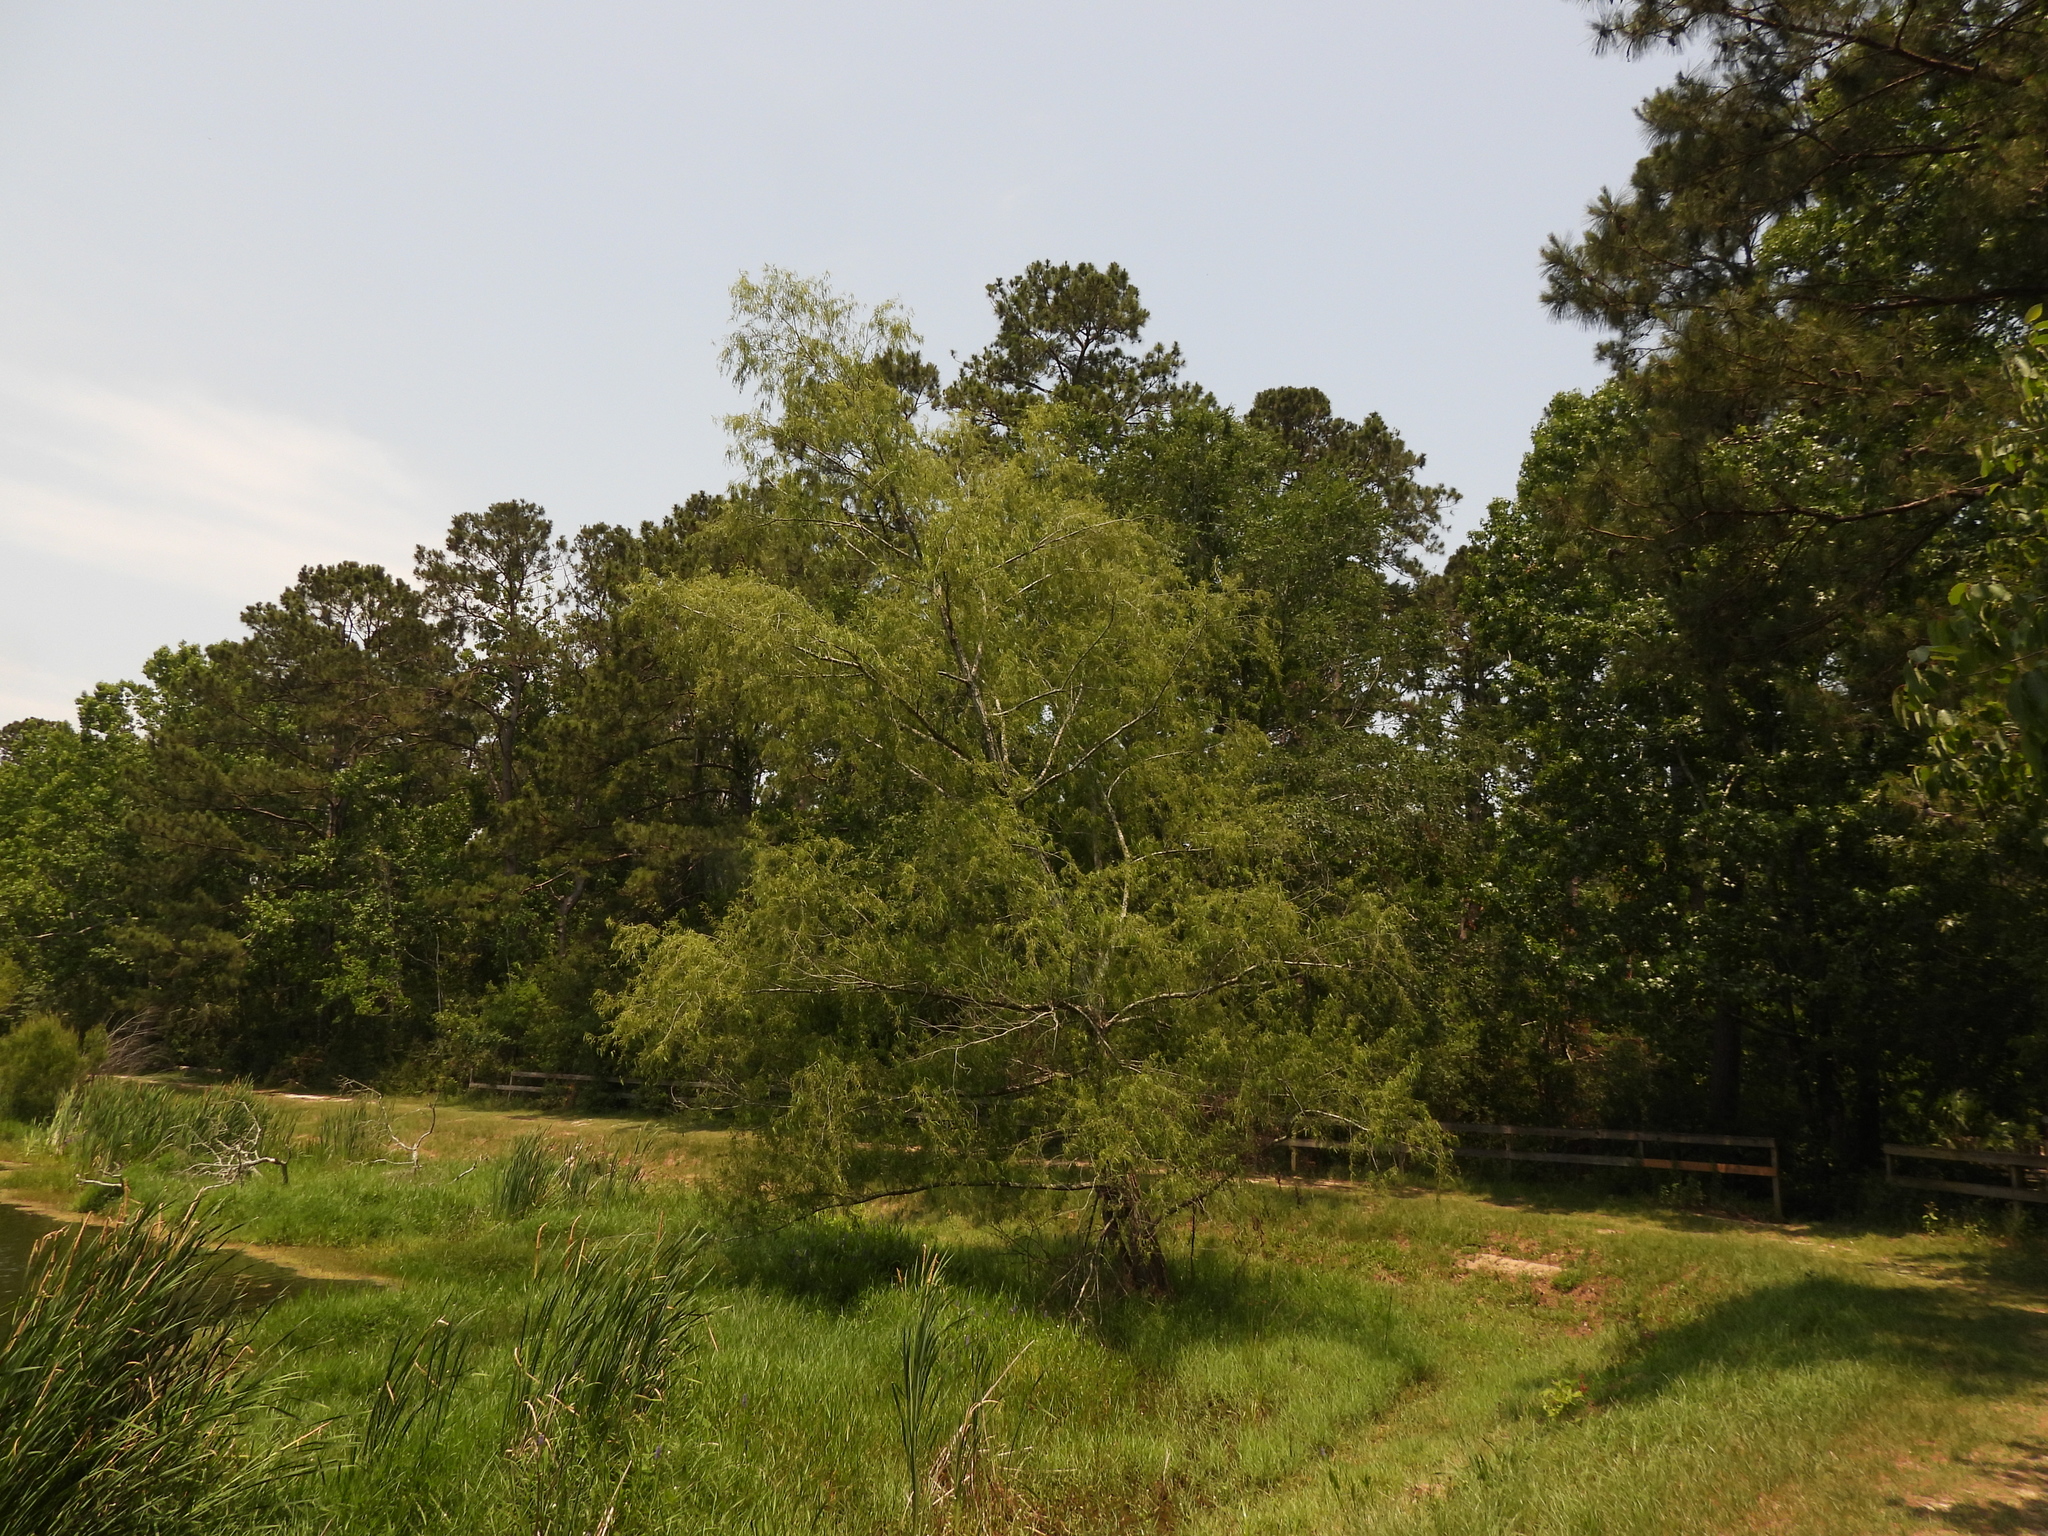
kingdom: Plantae
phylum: Tracheophyta
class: Magnoliopsida
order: Malpighiales
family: Salicaceae
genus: Salix
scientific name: Salix nigra
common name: Black willow
